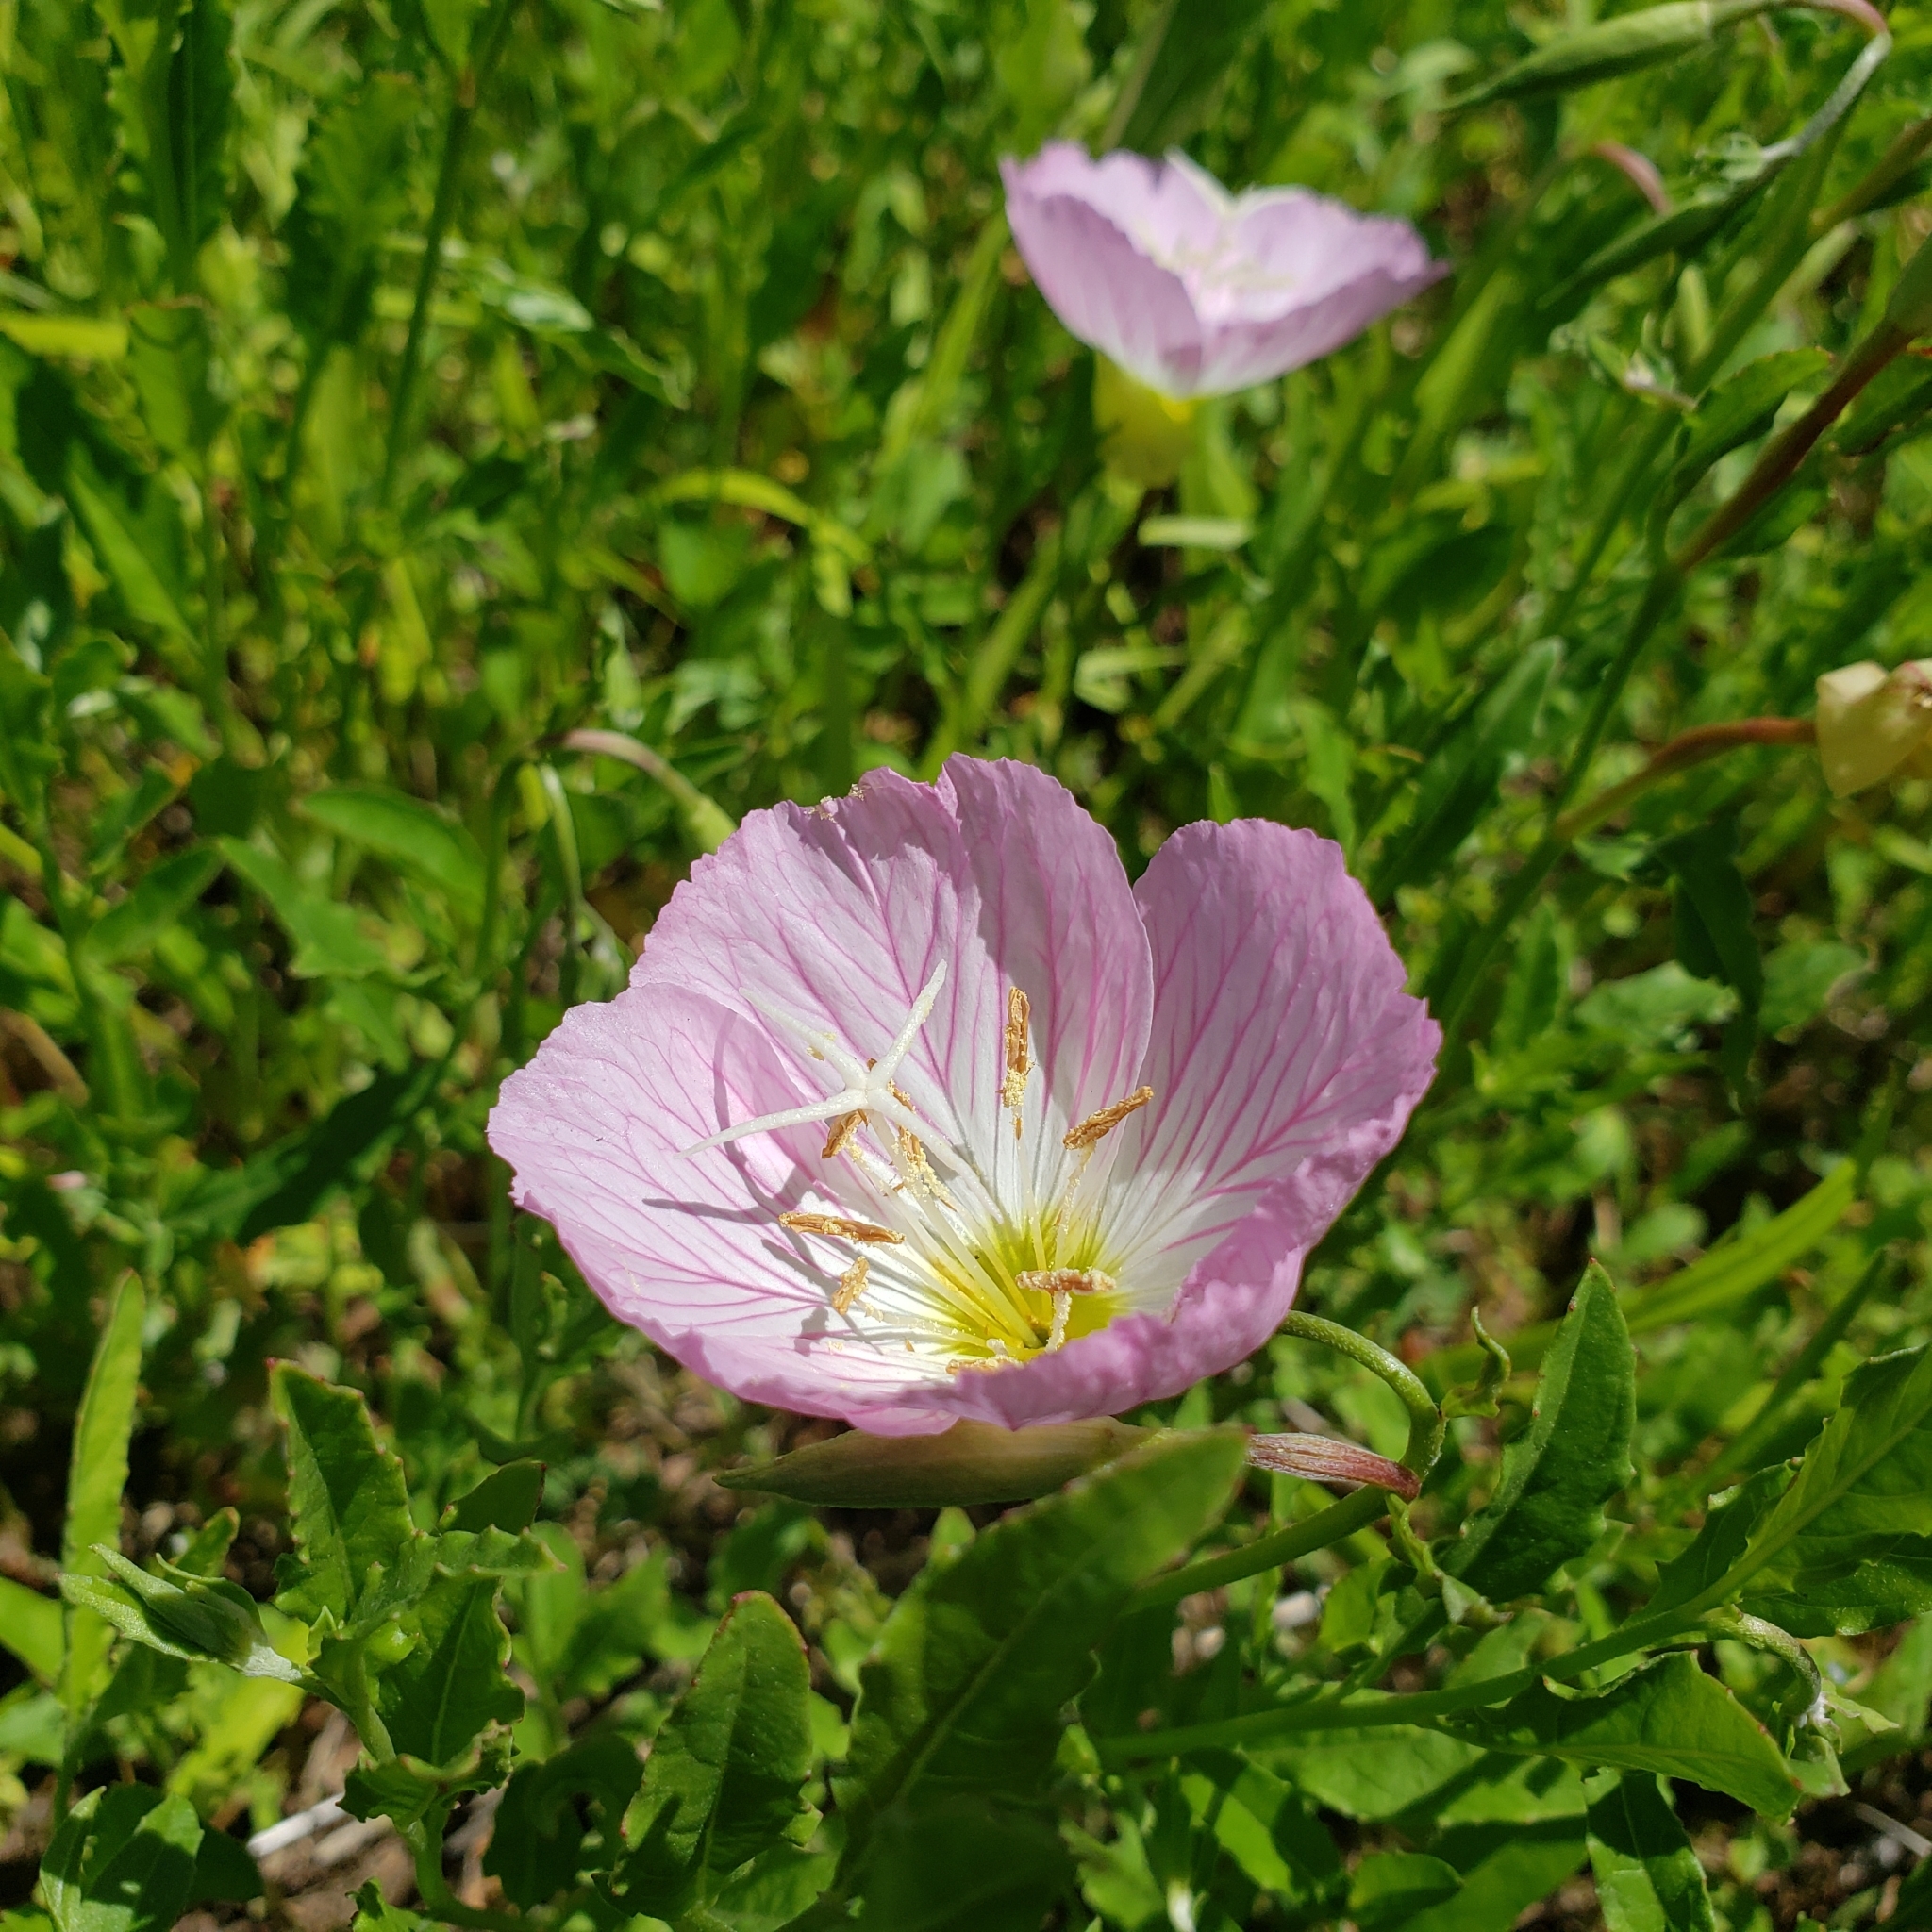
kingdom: Plantae
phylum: Tracheophyta
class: Magnoliopsida
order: Myrtales
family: Onagraceae
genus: Oenothera
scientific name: Oenothera speciosa
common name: White evening-primrose
